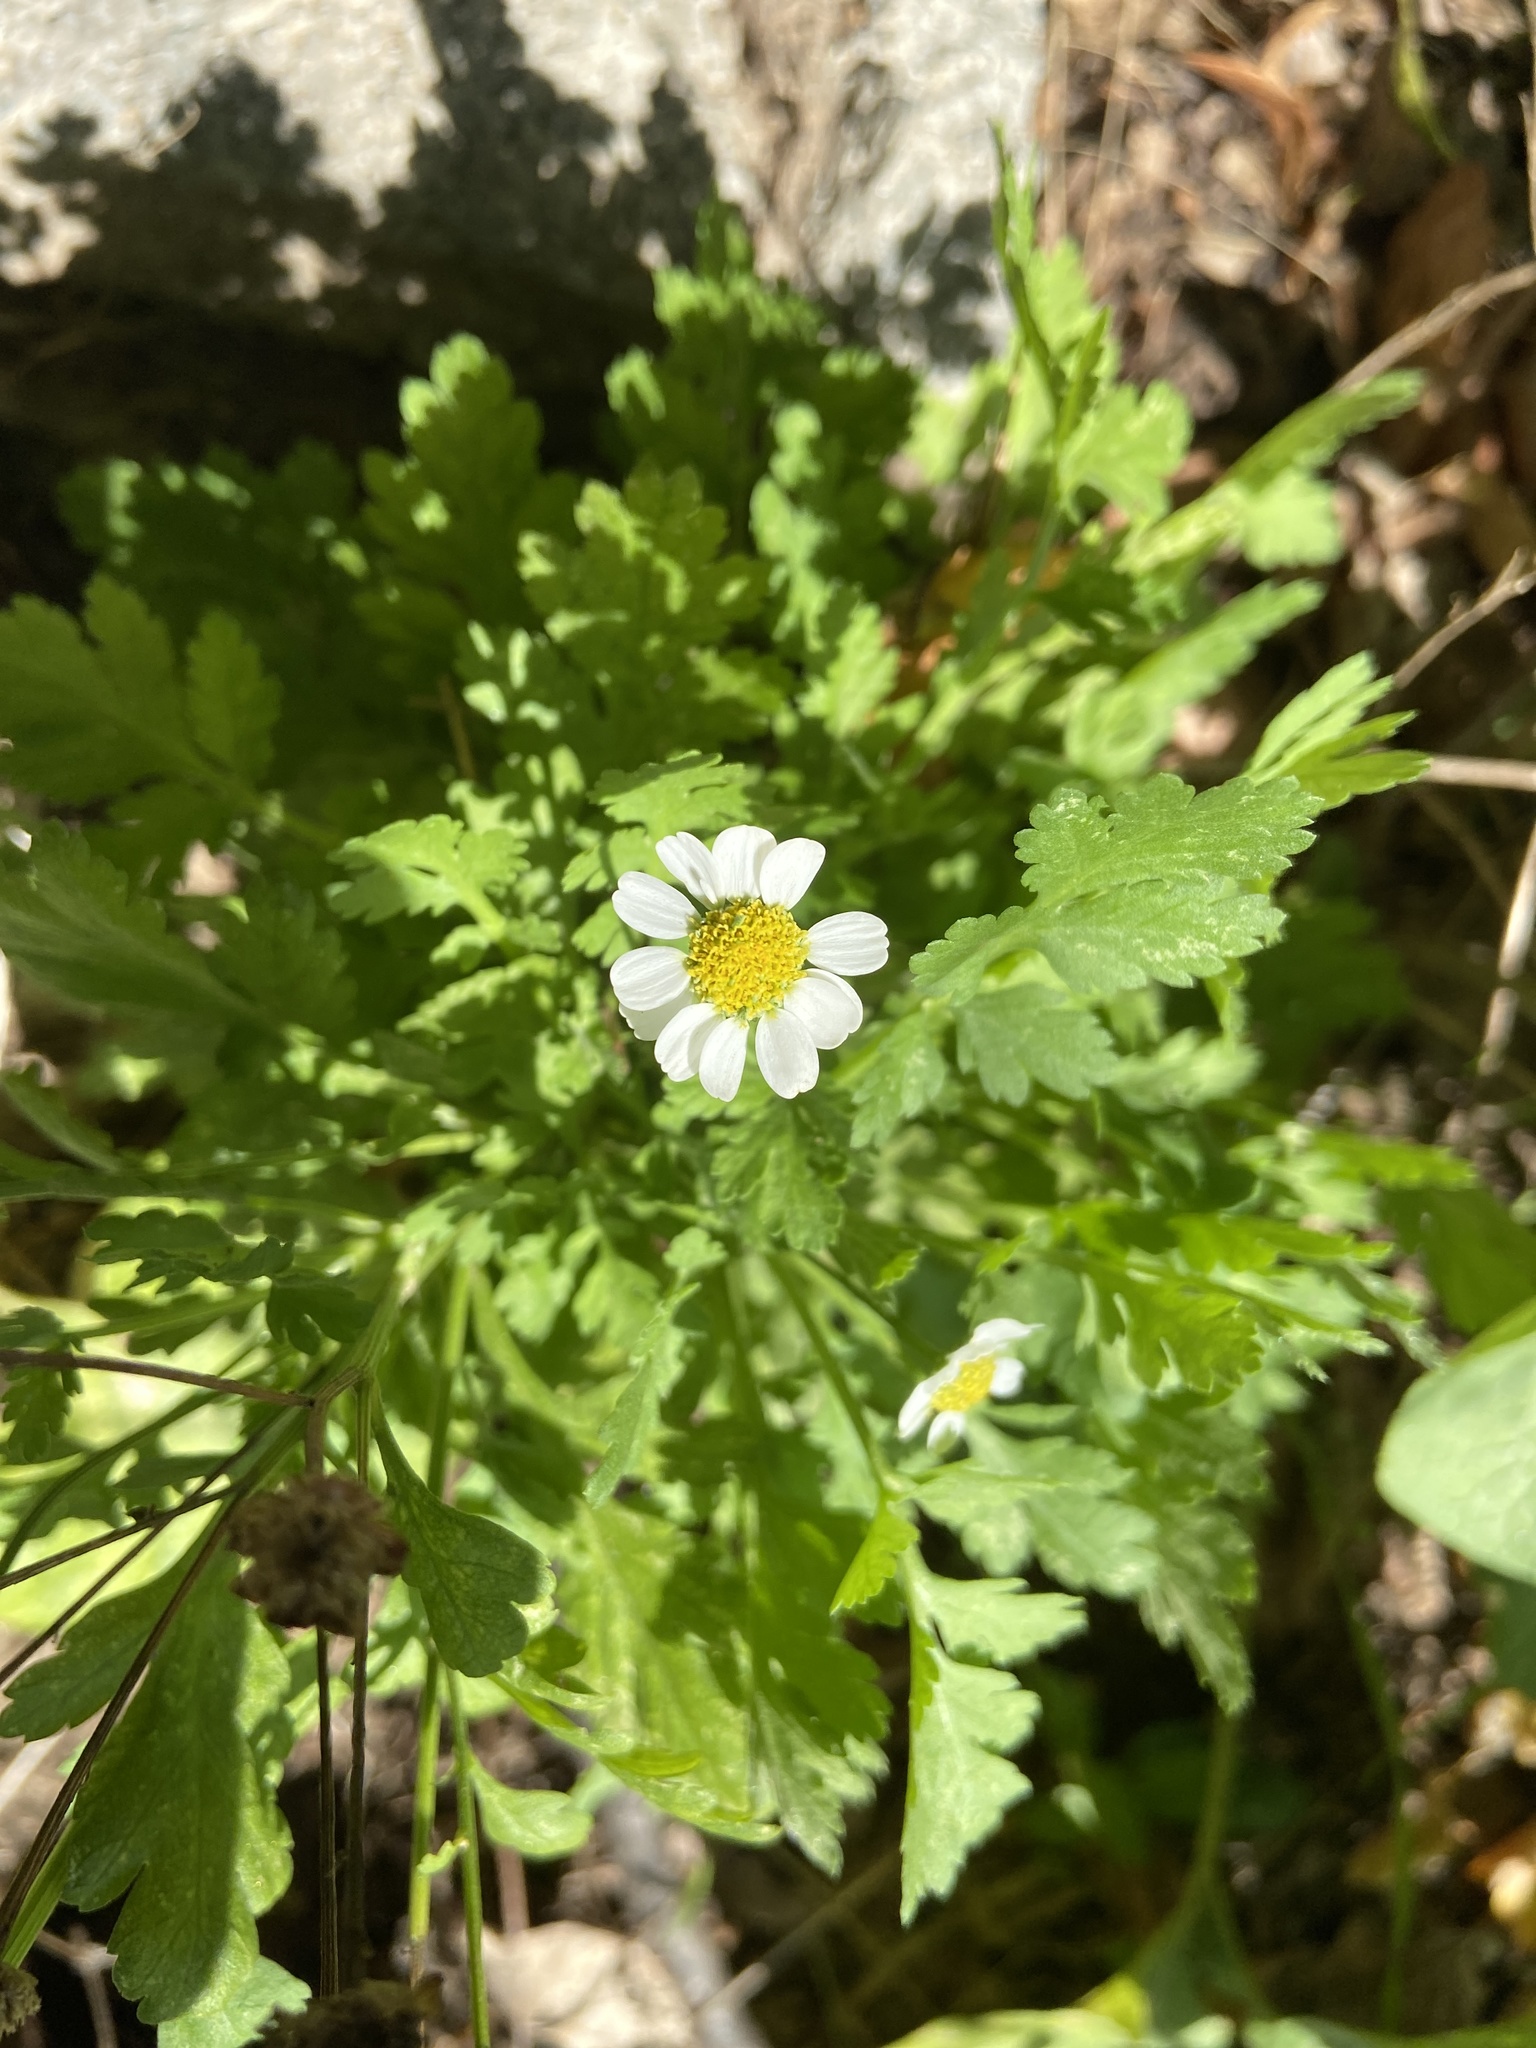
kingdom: Plantae
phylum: Tracheophyta
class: Magnoliopsida
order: Asterales
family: Asteraceae
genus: Tanacetum
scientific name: Tanacetum parthenium
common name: Feverfew
